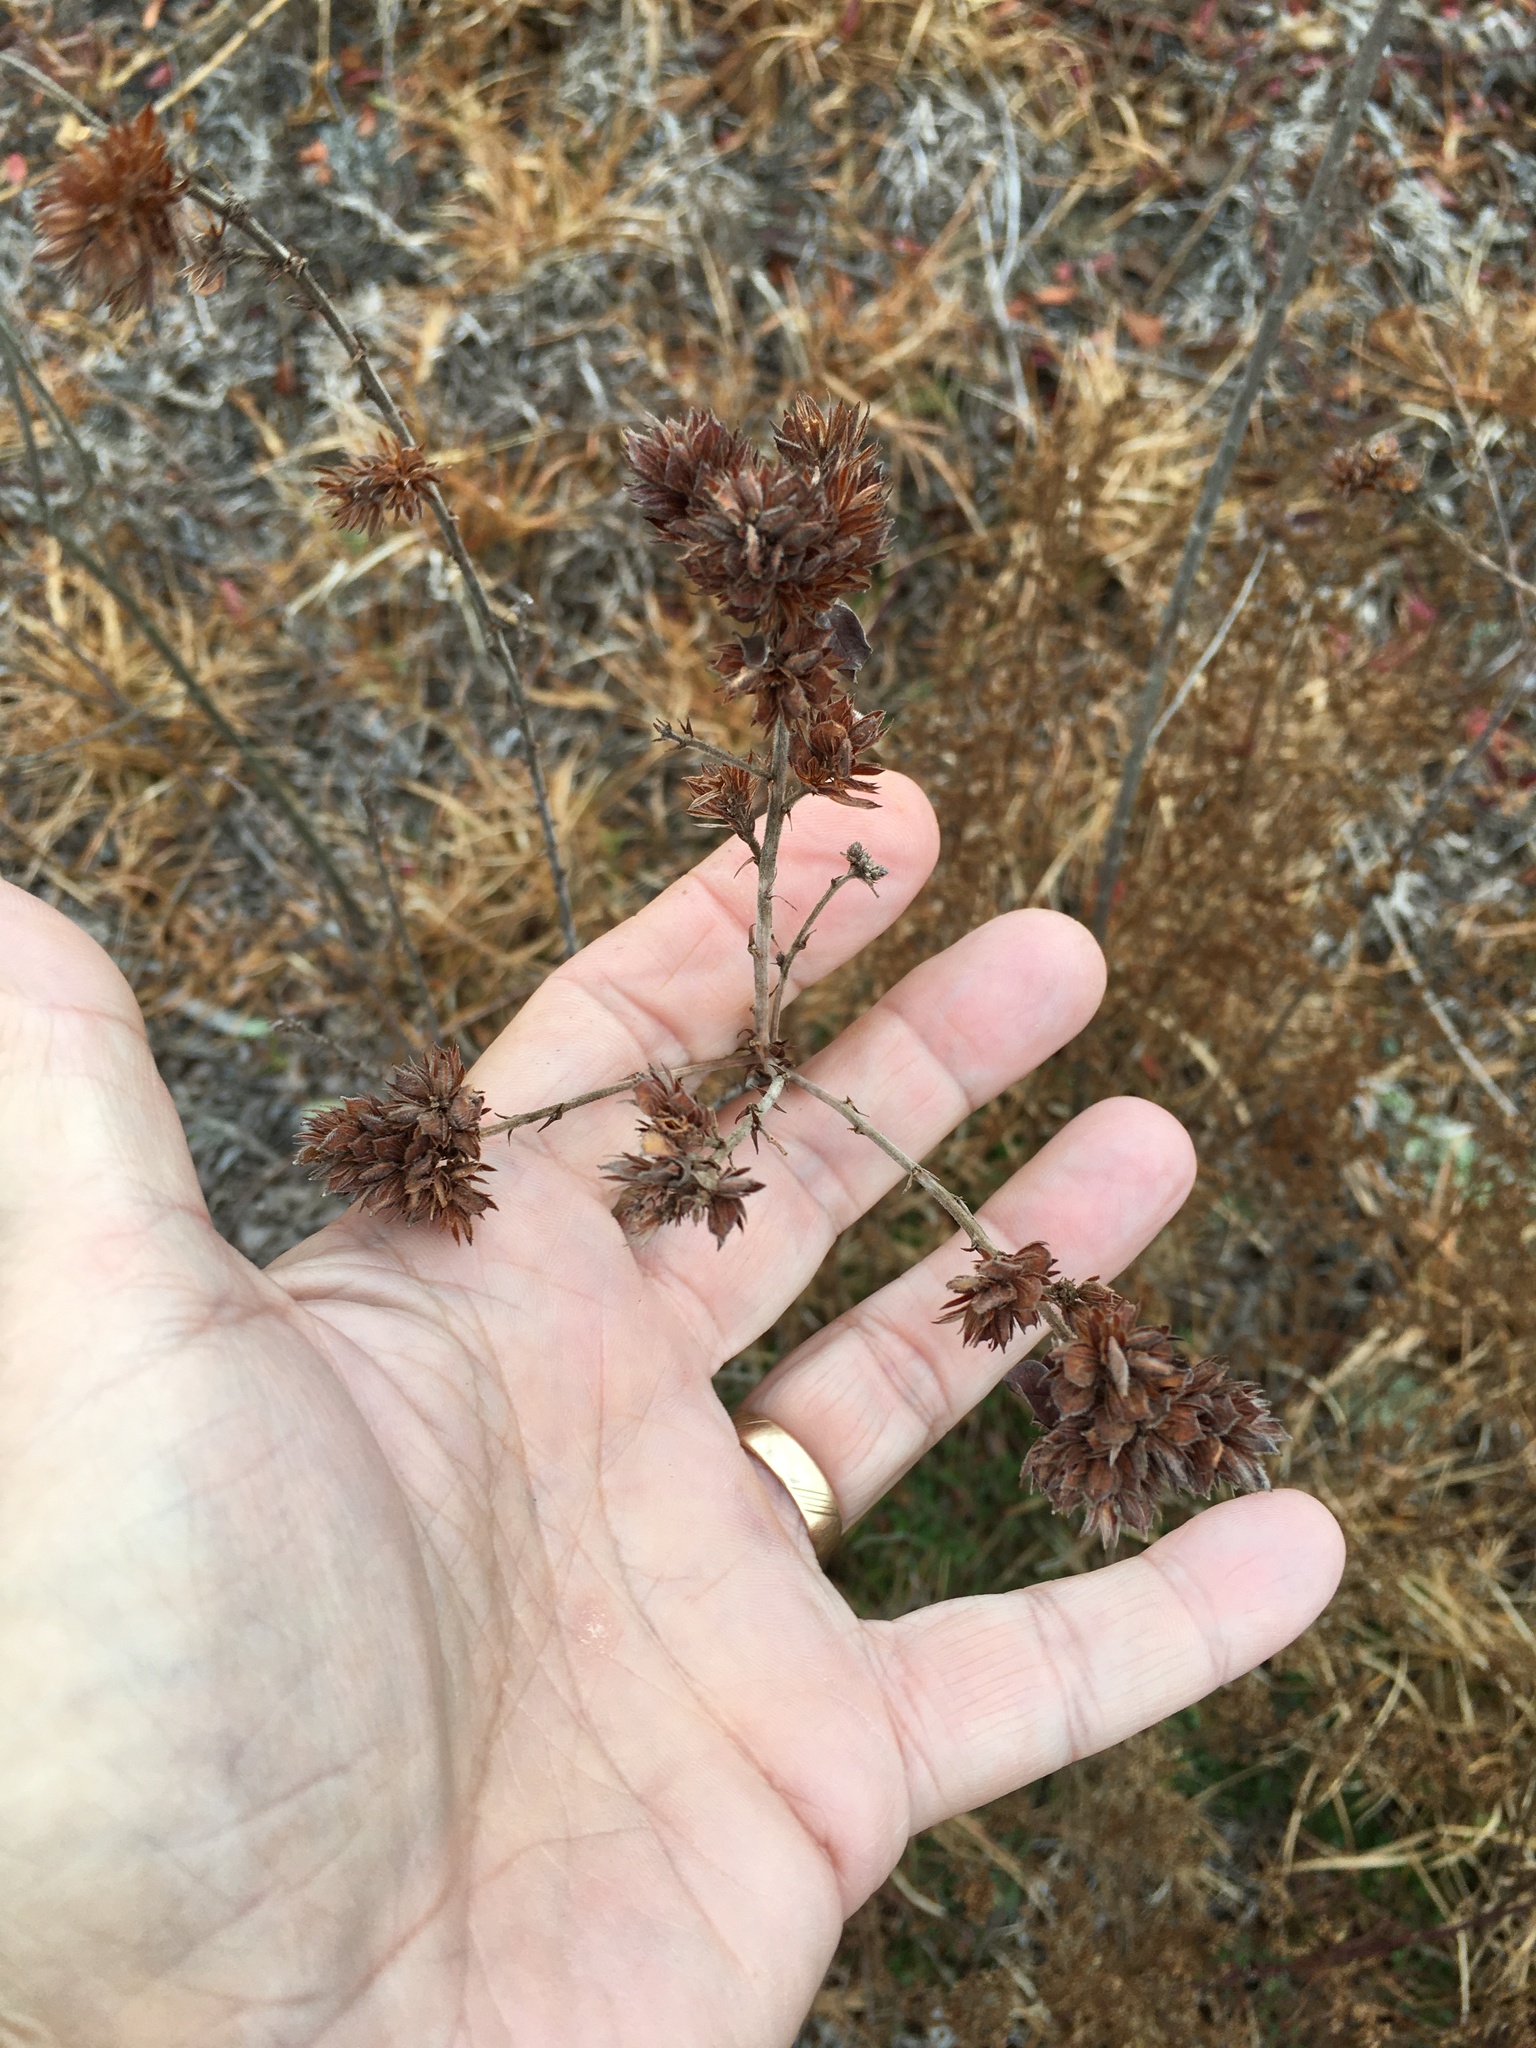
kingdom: Plantae
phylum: Tracheophyta
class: Magnoliopsida
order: Fabales
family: Fabaceae
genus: Lespedeza
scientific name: Lespedeza capitata
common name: Dusty clover
